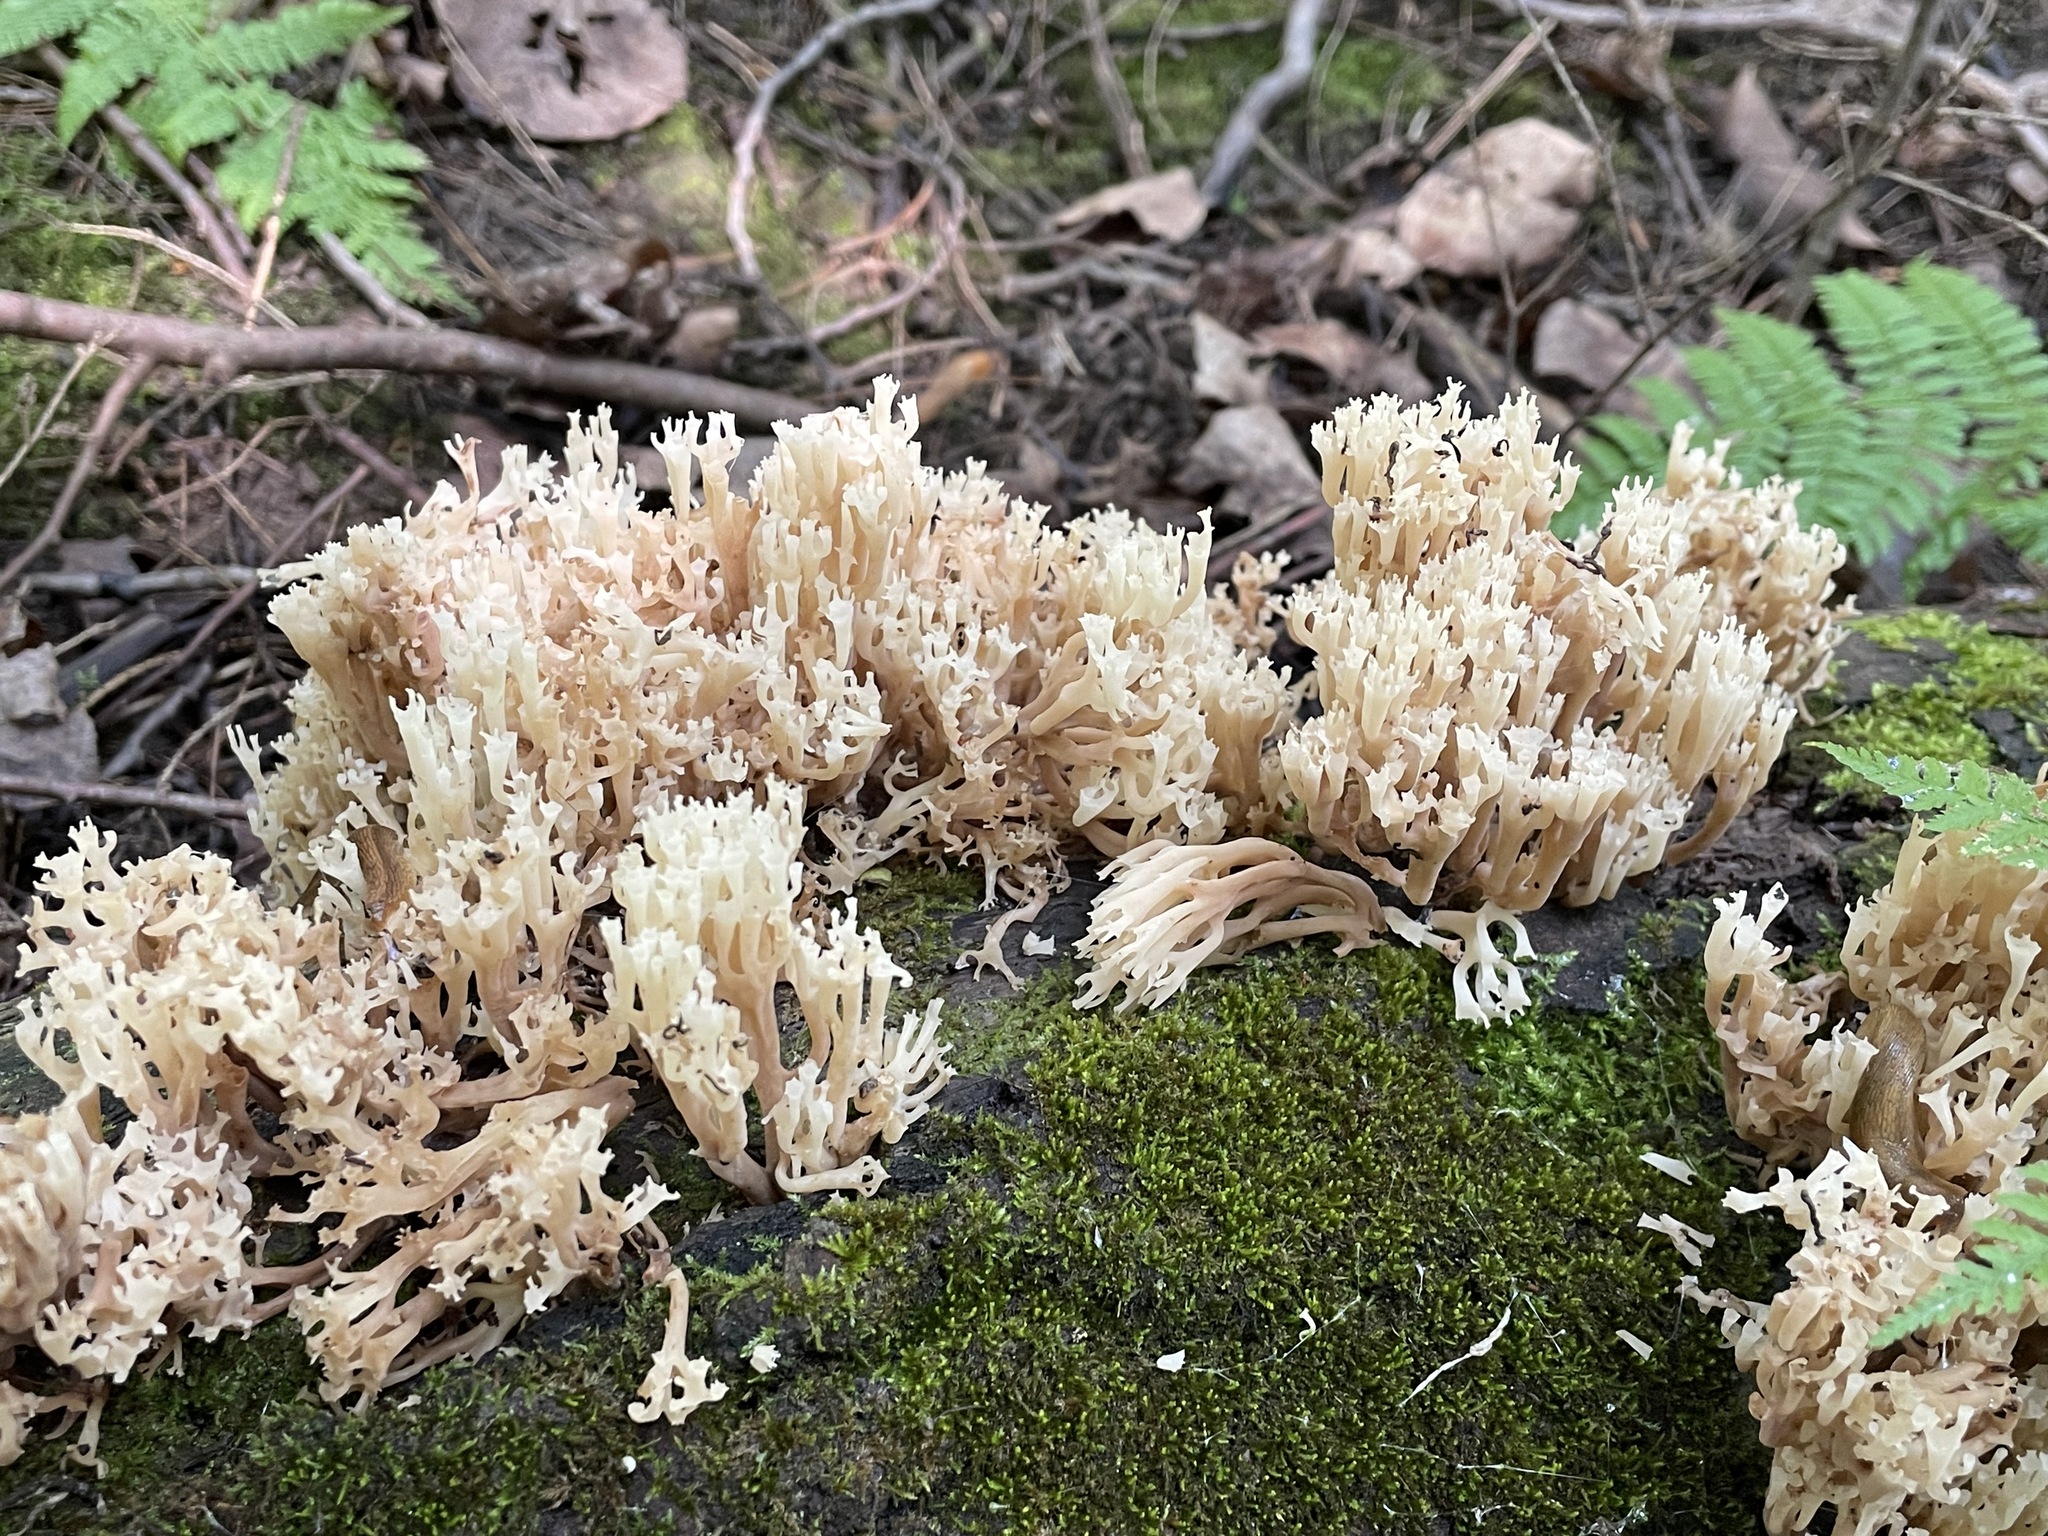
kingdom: Fungi
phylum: Basidiomycota
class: Agaricomycetes
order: Russulales
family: Auriscalpiaceae
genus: Artomyces
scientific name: Artomyces pyxidatus
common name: Crown-tipped coral fungus
